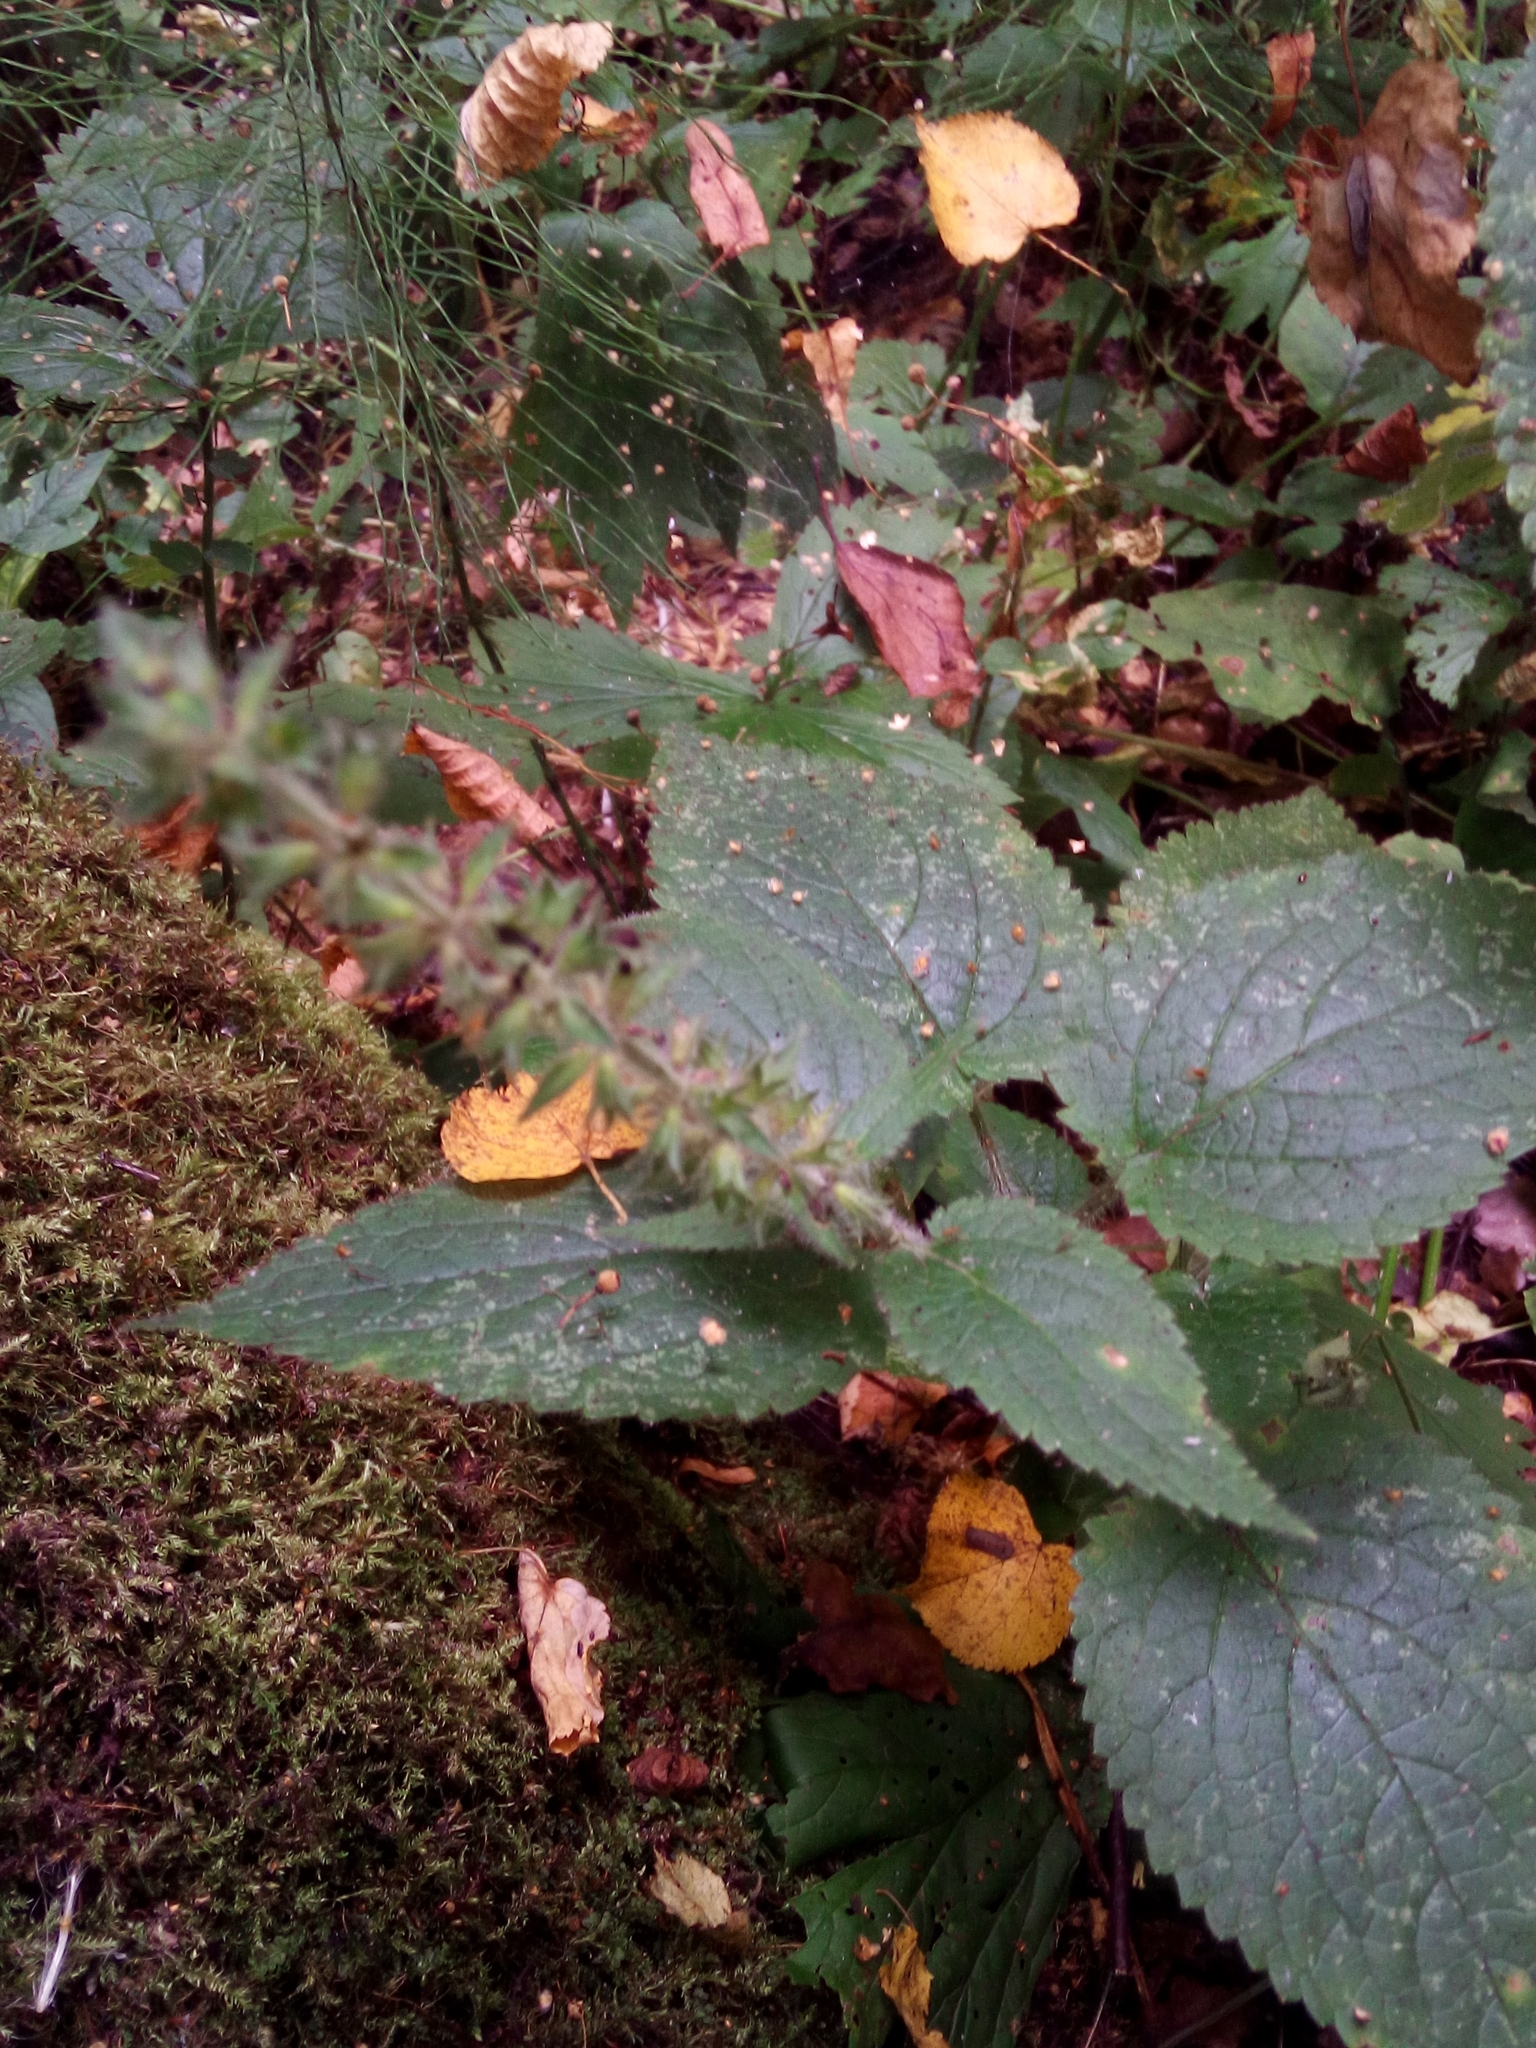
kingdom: Plantae
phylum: Tracheophyta
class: Magnoliopsida
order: Lamiales
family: Lamiaceae
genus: Stachys
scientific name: Stachys sylvatica
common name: Hedge woundwort
